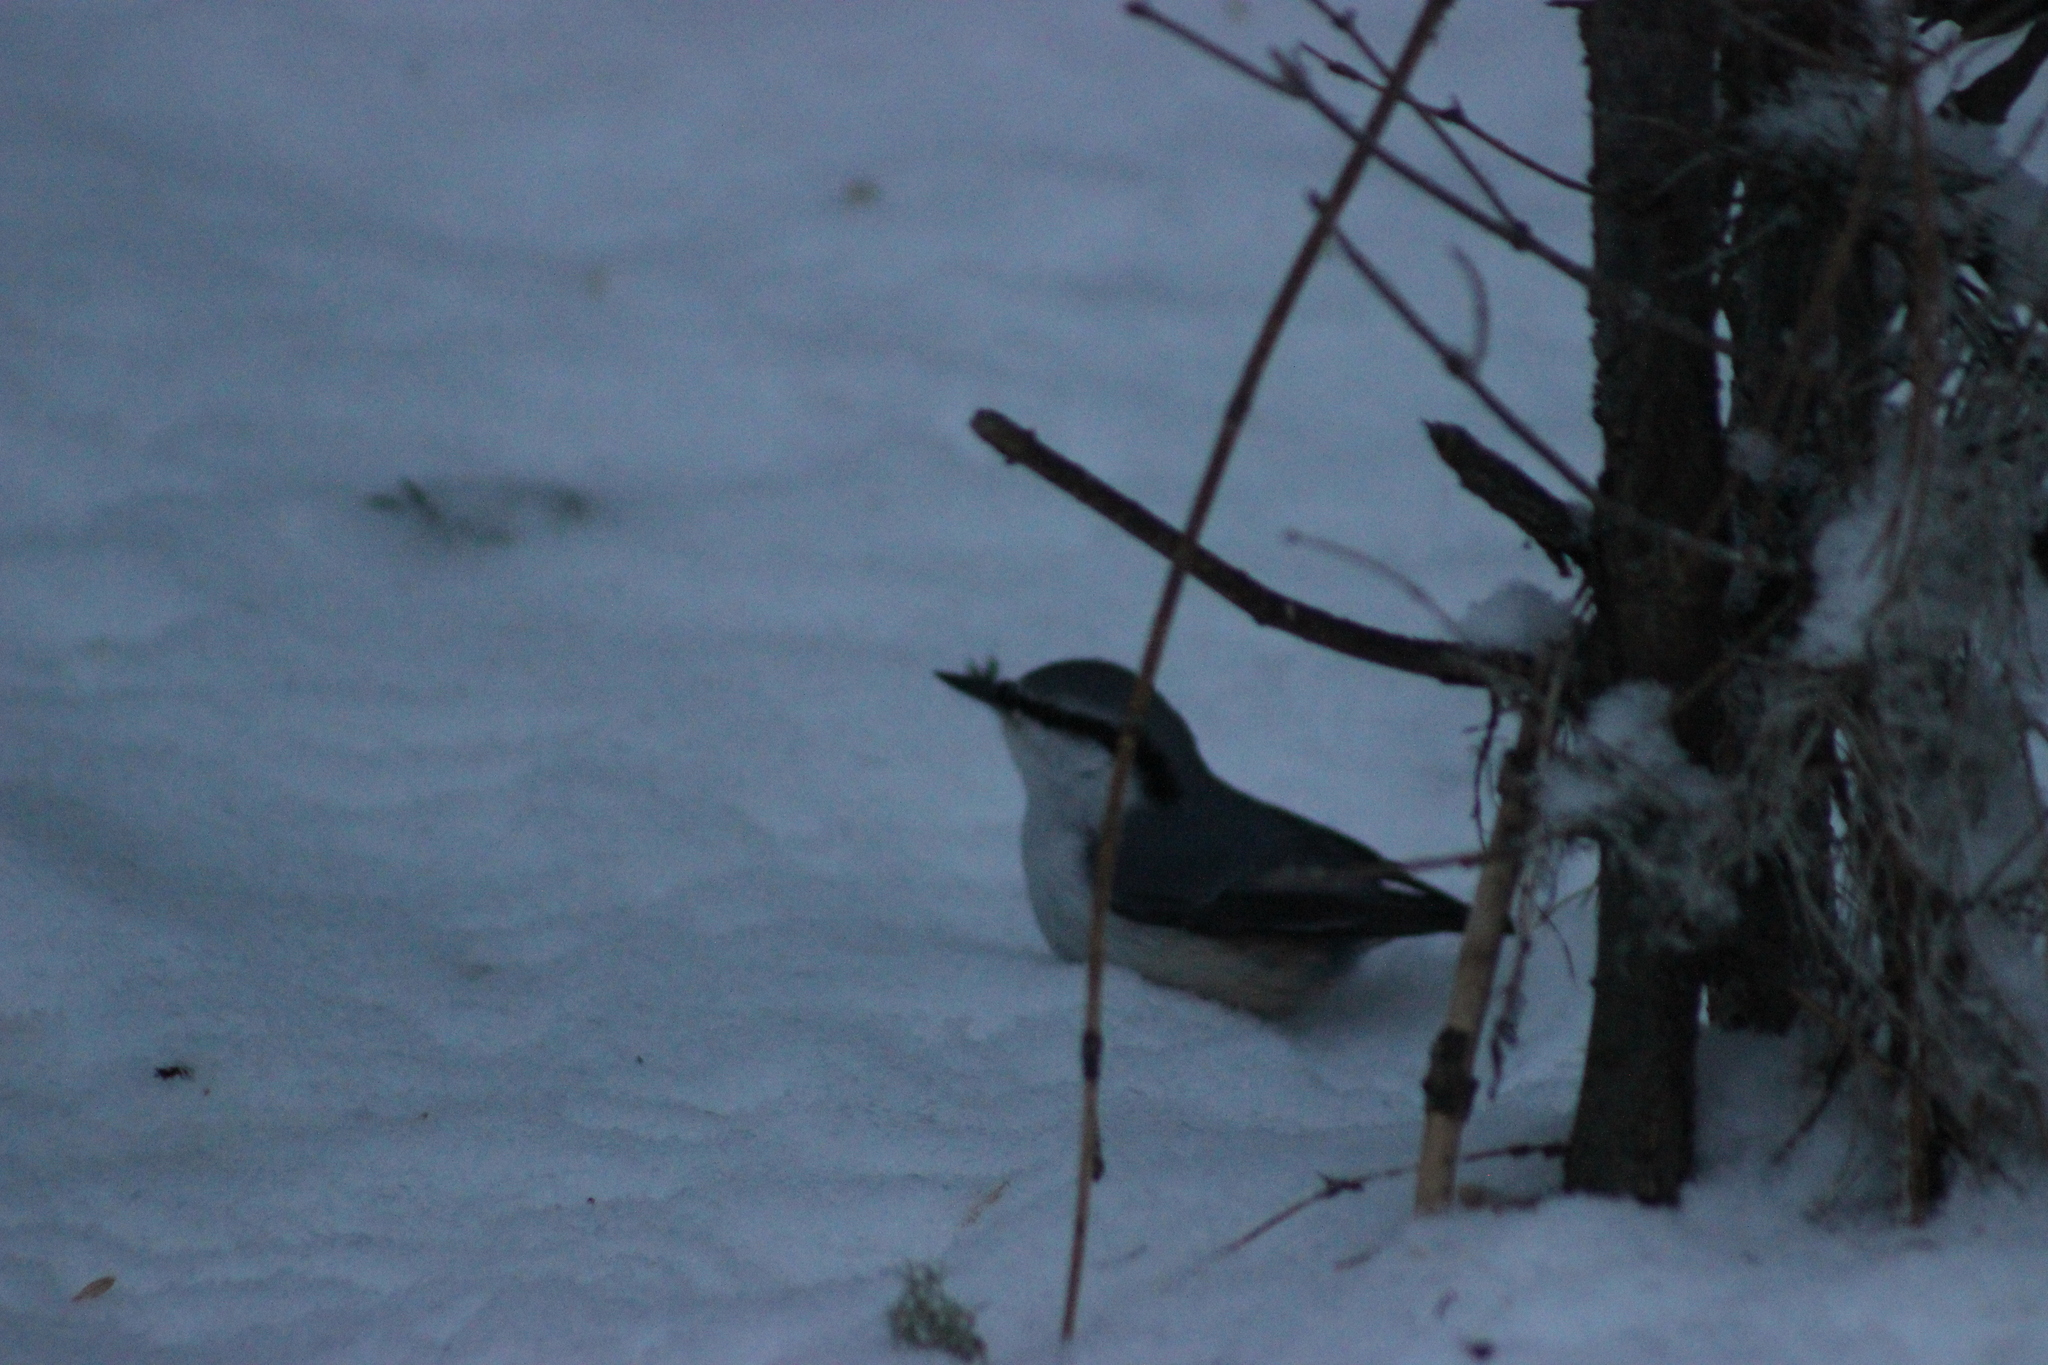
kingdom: Animalia
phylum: Chordata
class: Aves
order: Passeriformes
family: Sittidae
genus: Sitta
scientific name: Sitta europaea
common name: Eurasian nuthatch
